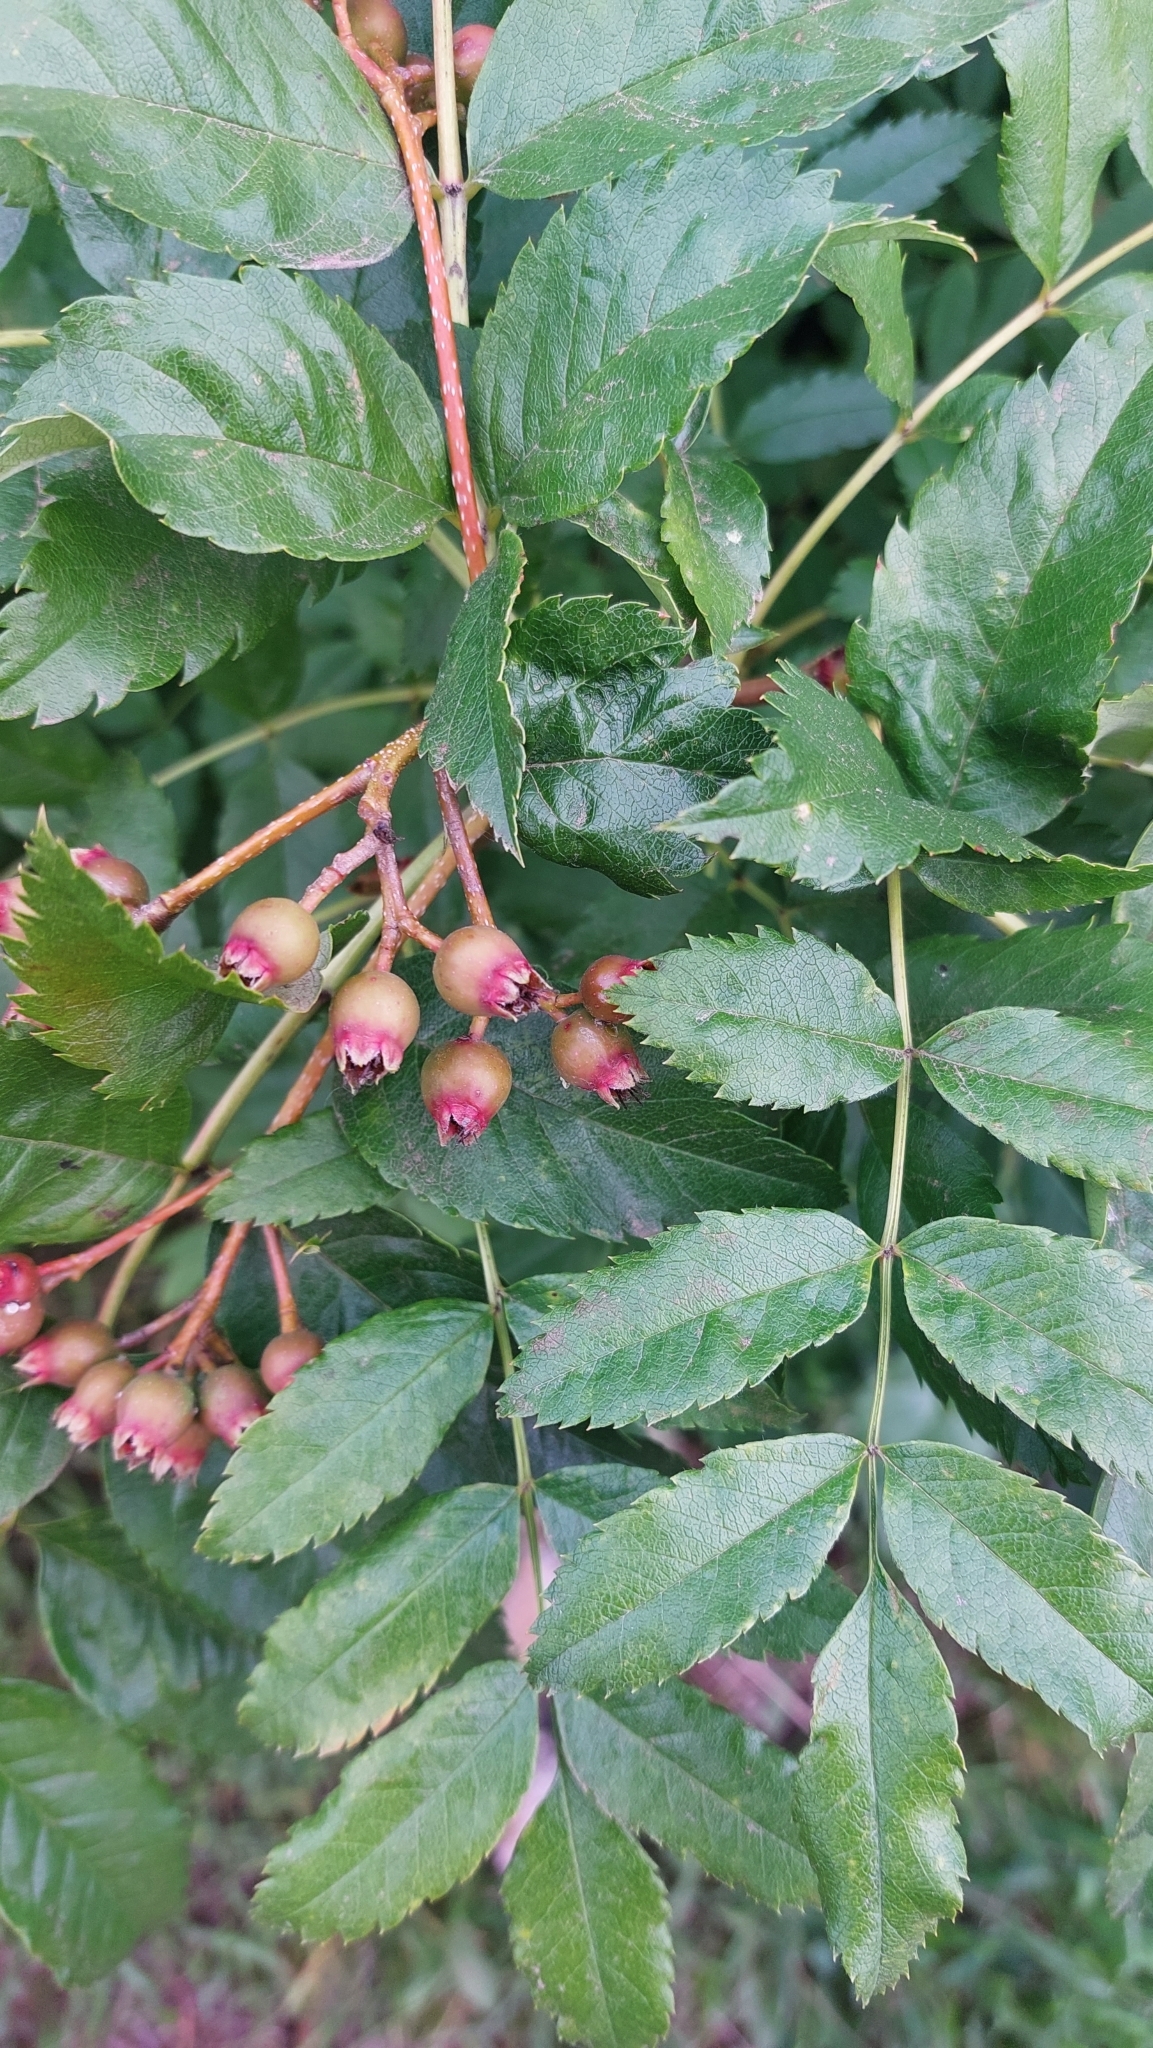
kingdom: Plantae
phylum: Tracheophyta
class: Magnoliopsida
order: Rosales
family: Rosaceae
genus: Sorbus
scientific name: Sorbus sambucifolia
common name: Siberian mountain-ash
